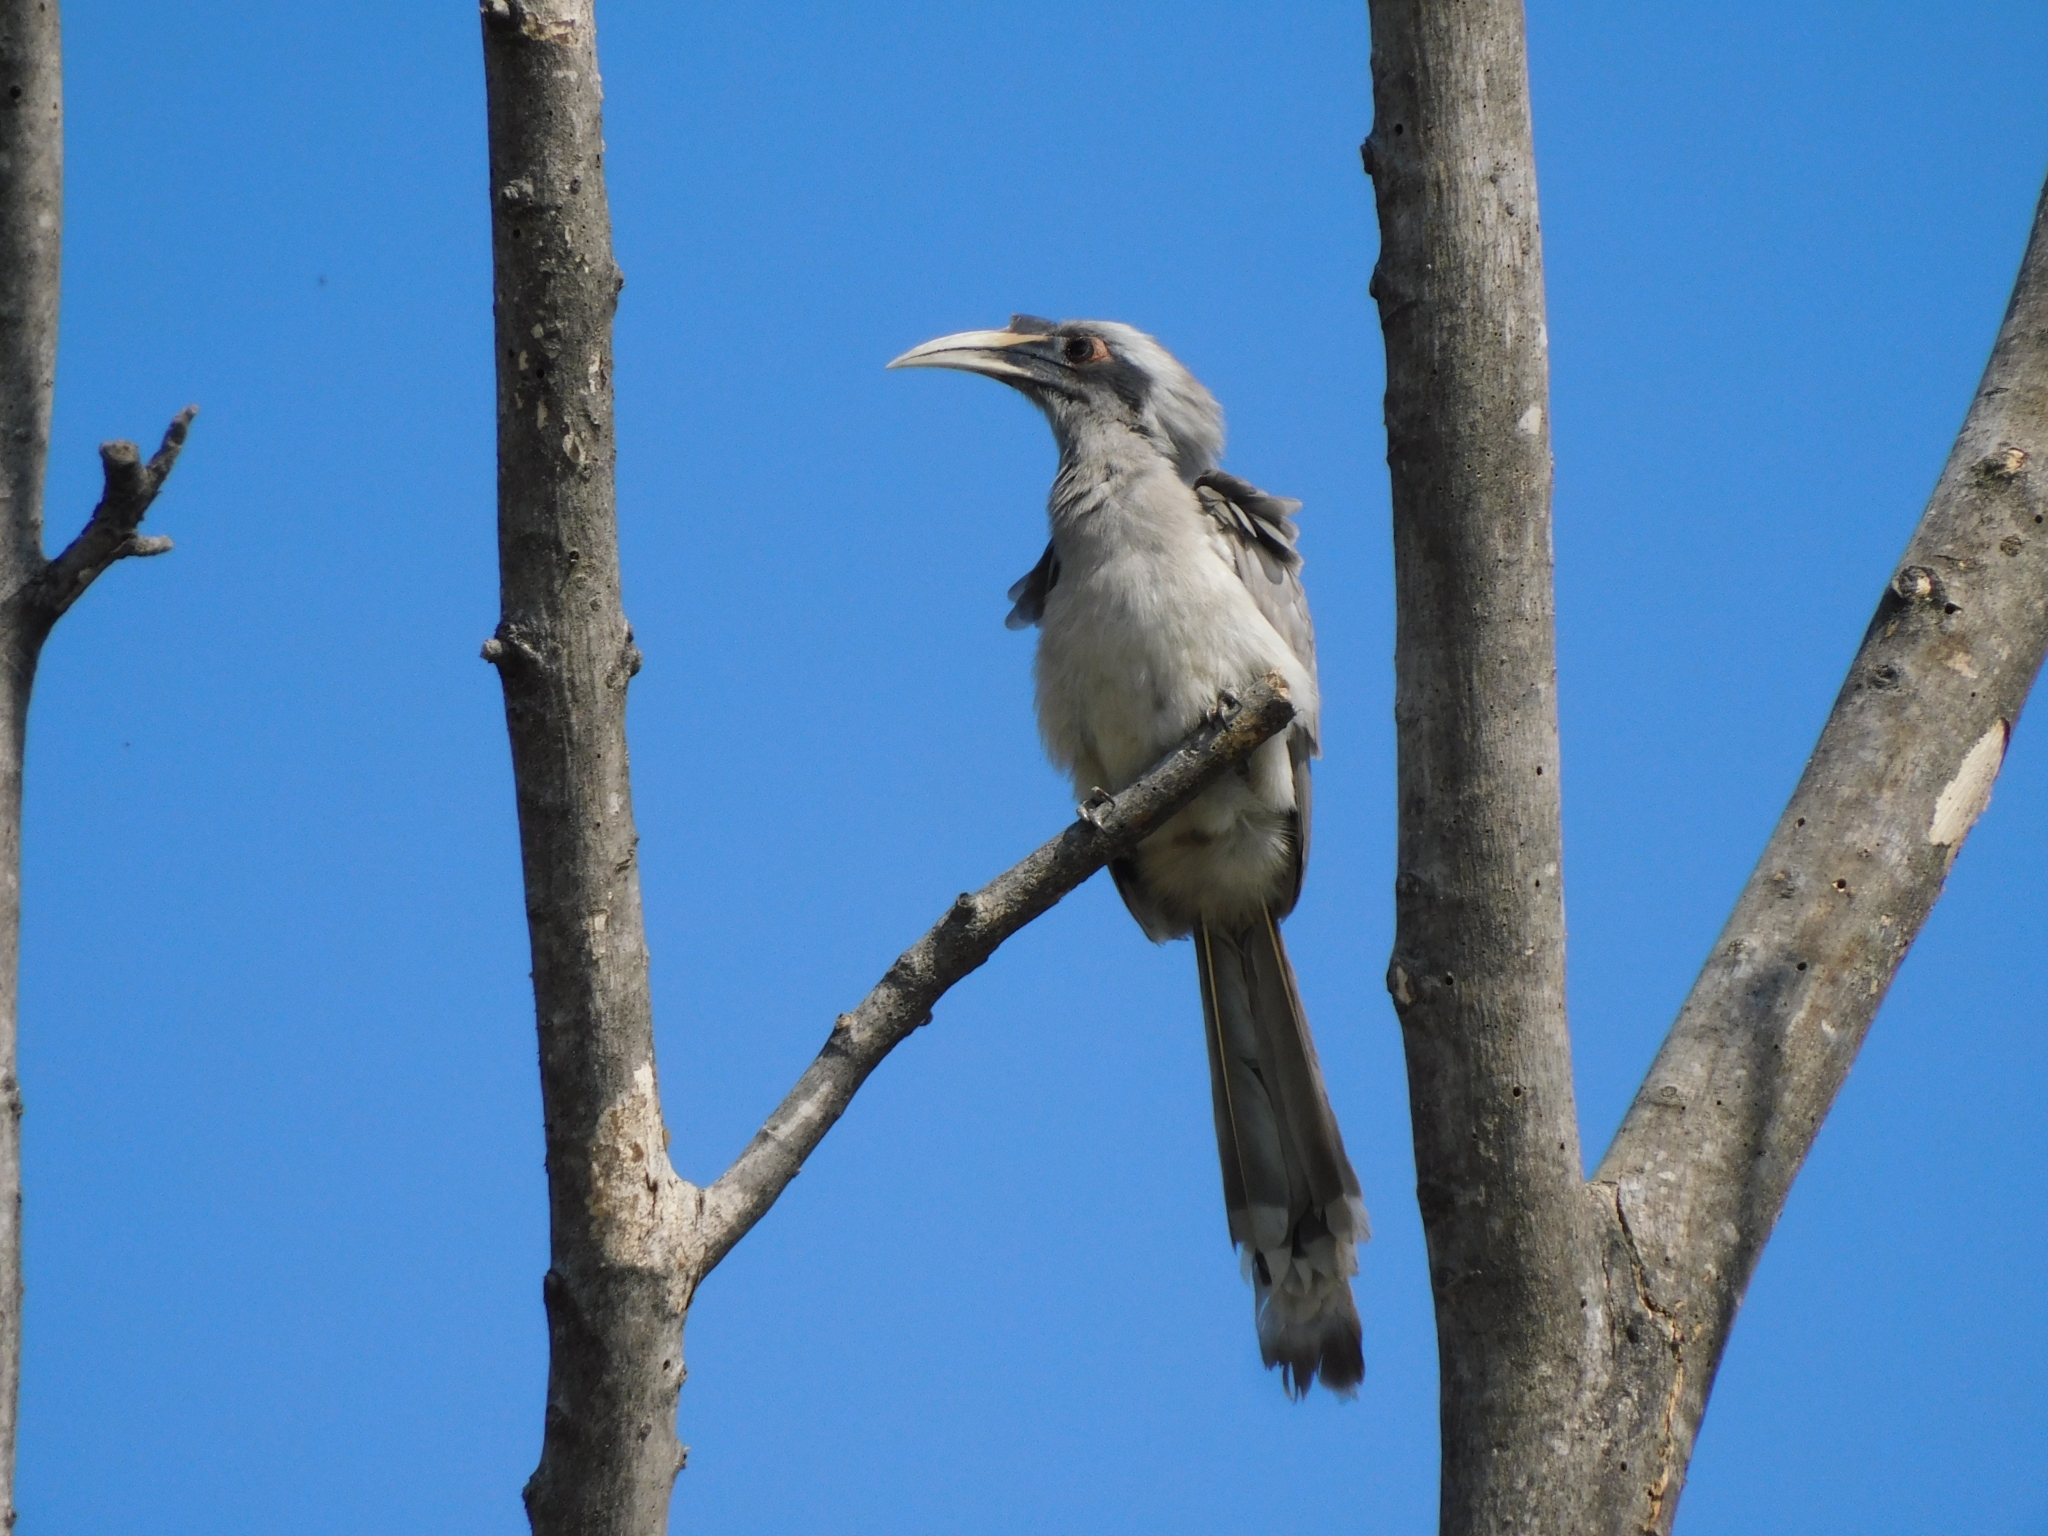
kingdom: Animalia
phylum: Chordata
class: Aves
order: Bucerotiformes
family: Bucerotidae
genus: Ocyceros
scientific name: Ocyceros birostris
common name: Indian grey hornbill
